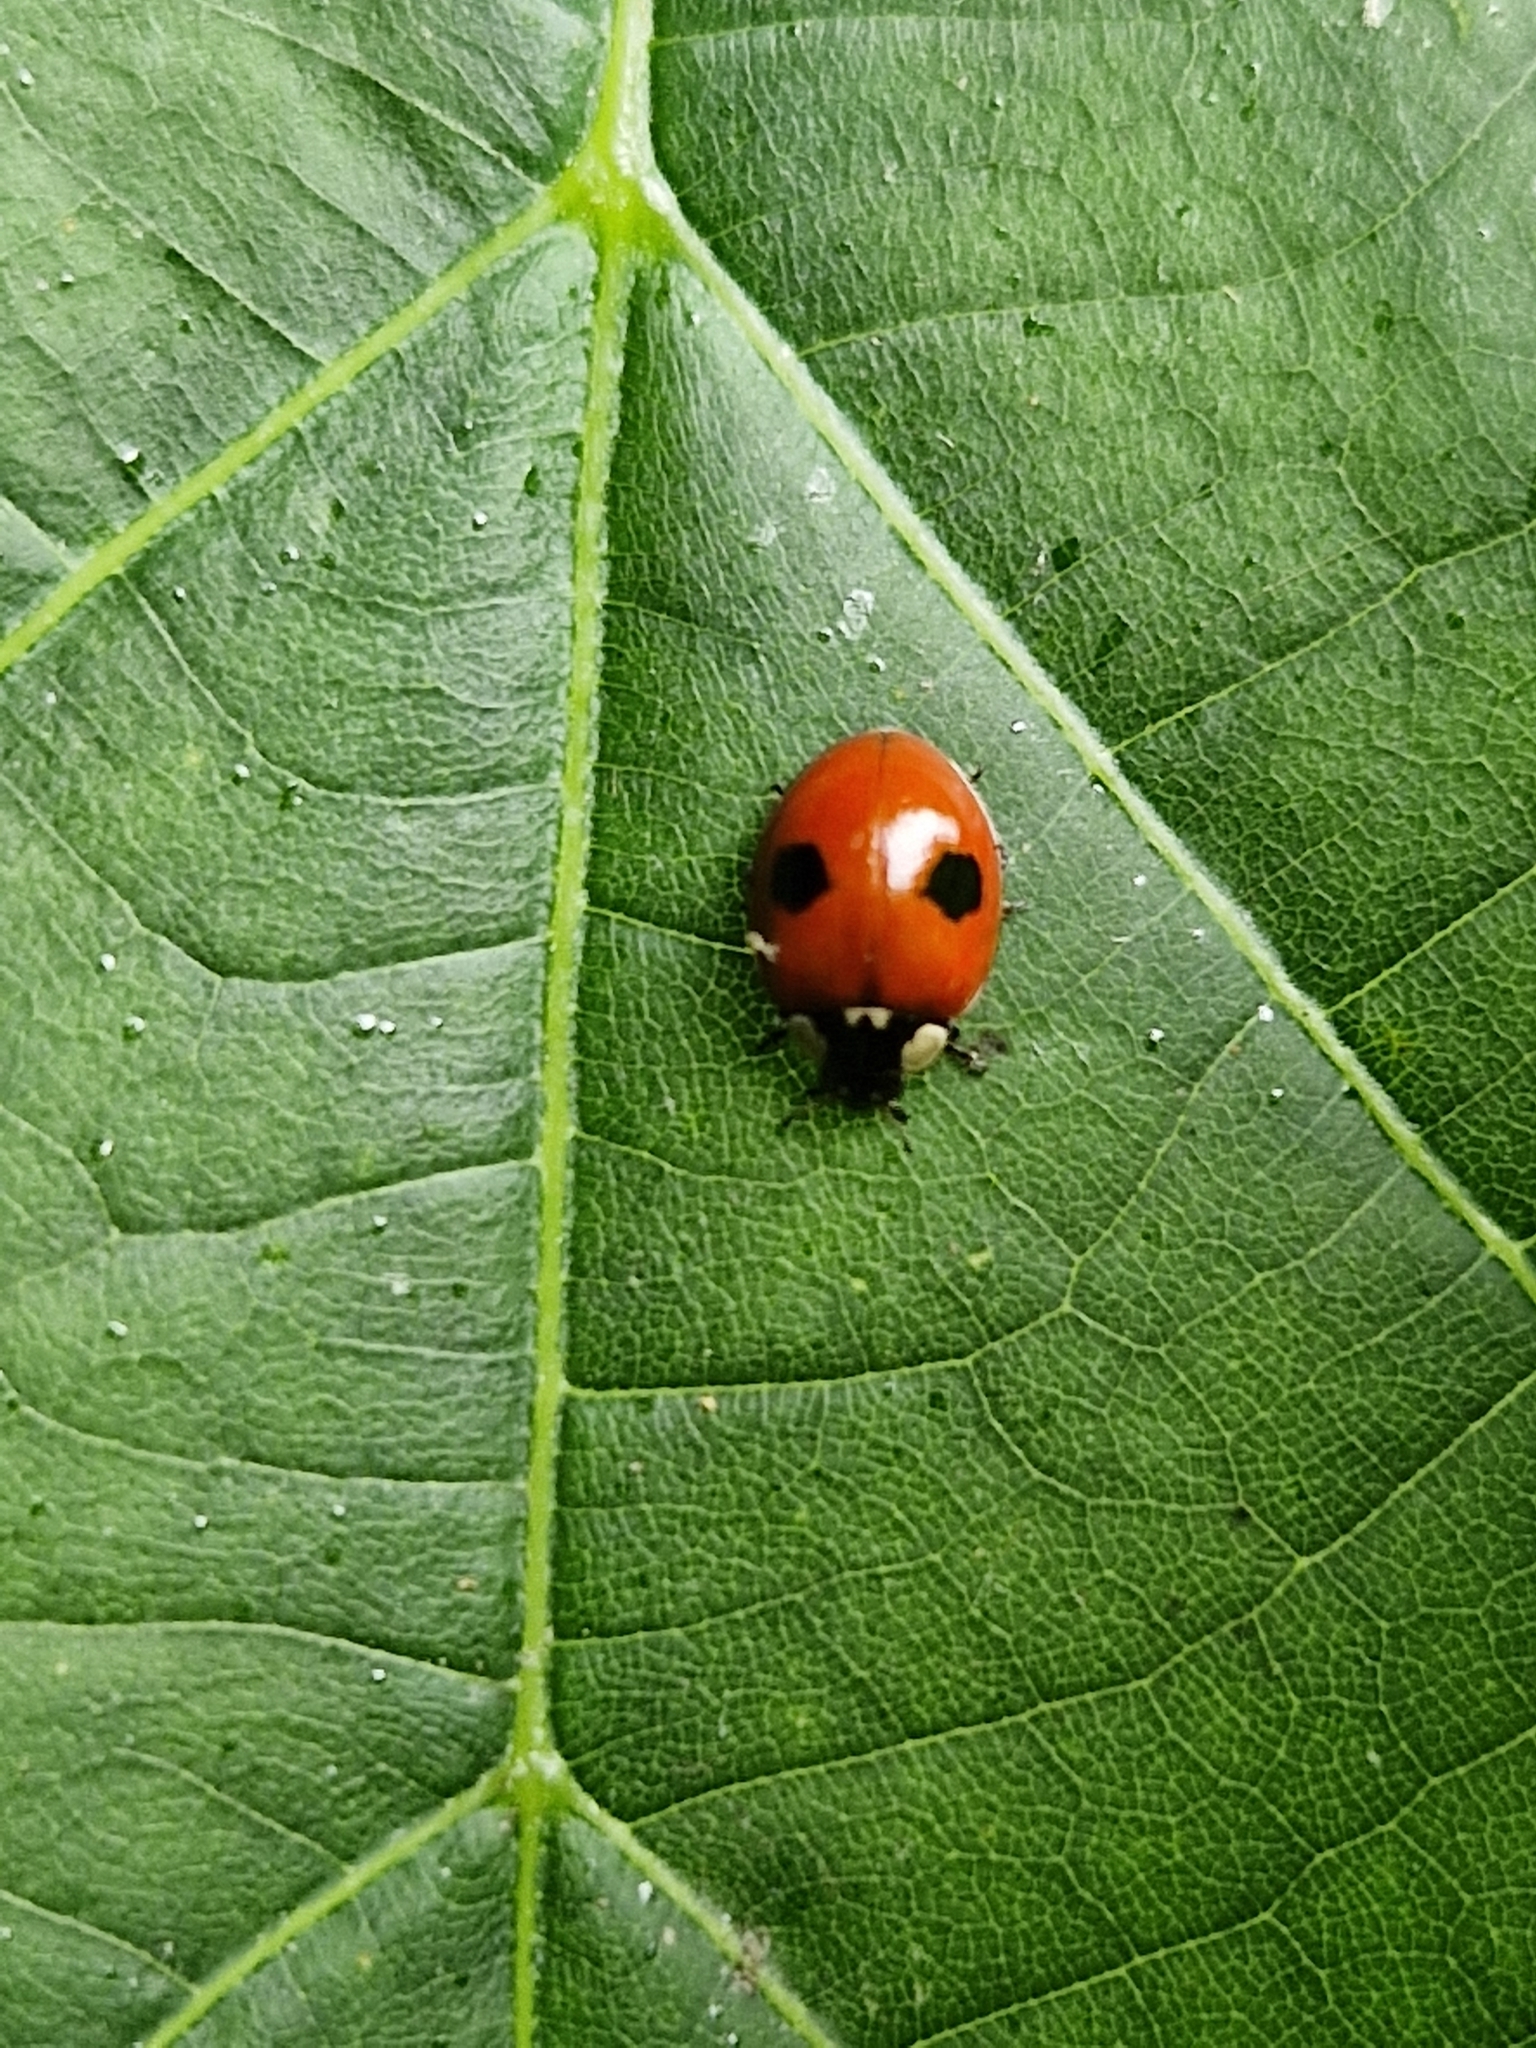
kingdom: Animalia
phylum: Arthropoda
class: Insecta
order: Coleoptera
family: Coccinellidae
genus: Adalia
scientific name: Adalia bipunctata
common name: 2-spot ladybird
